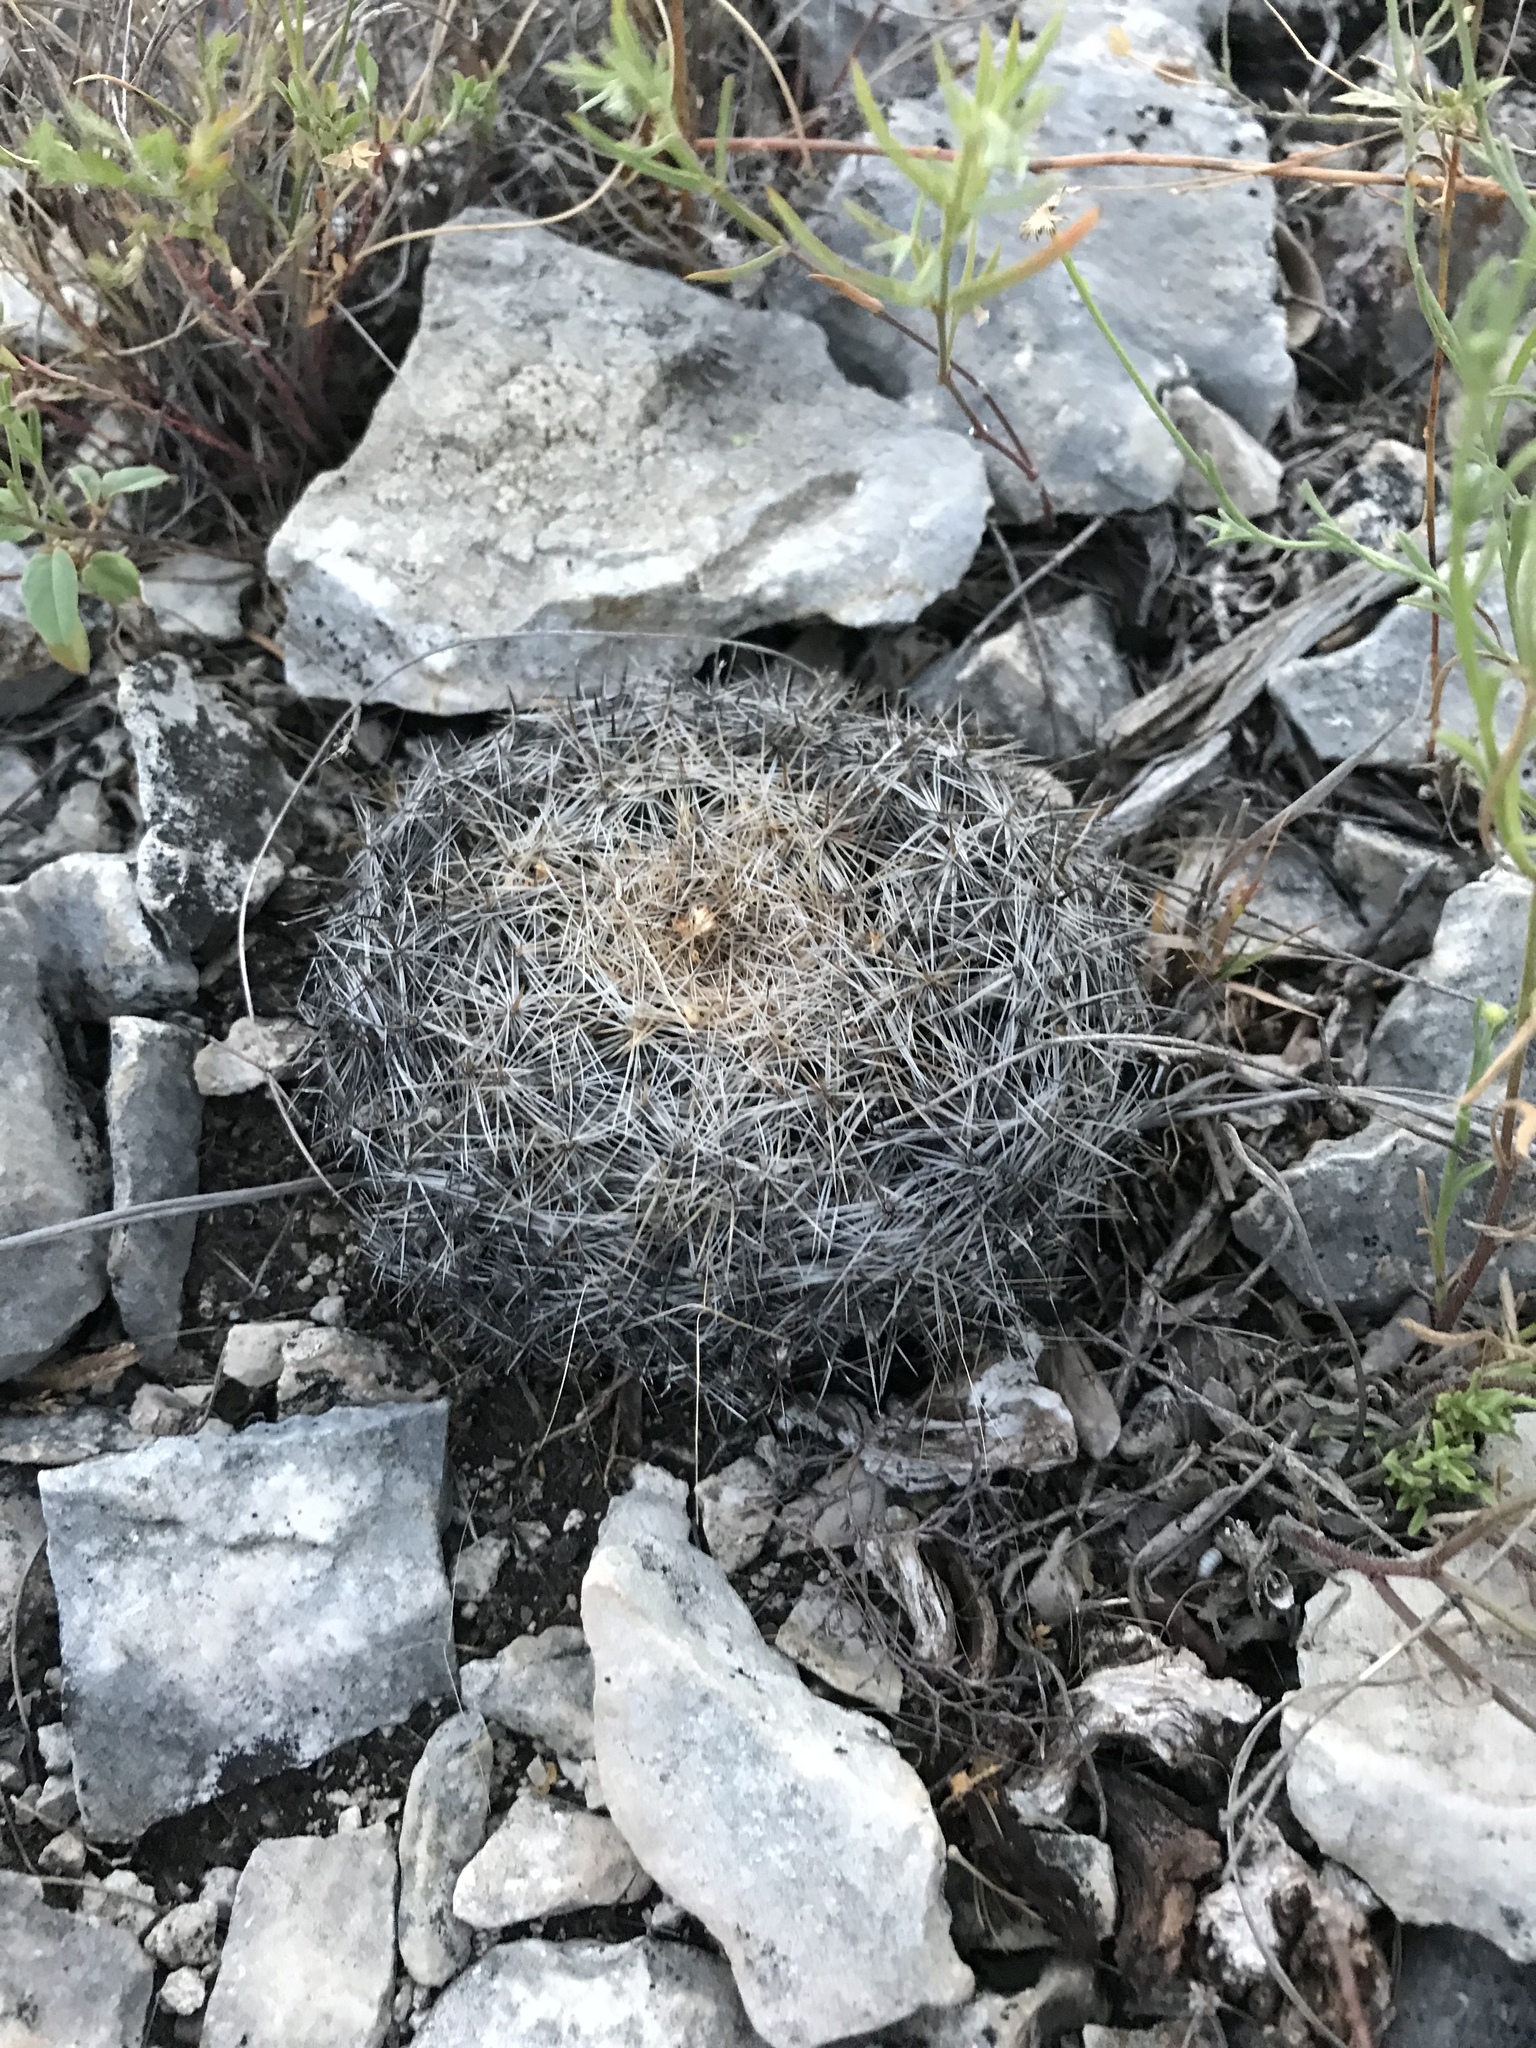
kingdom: Plantae
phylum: Tracheophyta
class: Magnoliopsida
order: Caryophyllales
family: Cactaceae
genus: Mammillaria
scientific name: Mammillaria heyderi
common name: Little nipple cactus
